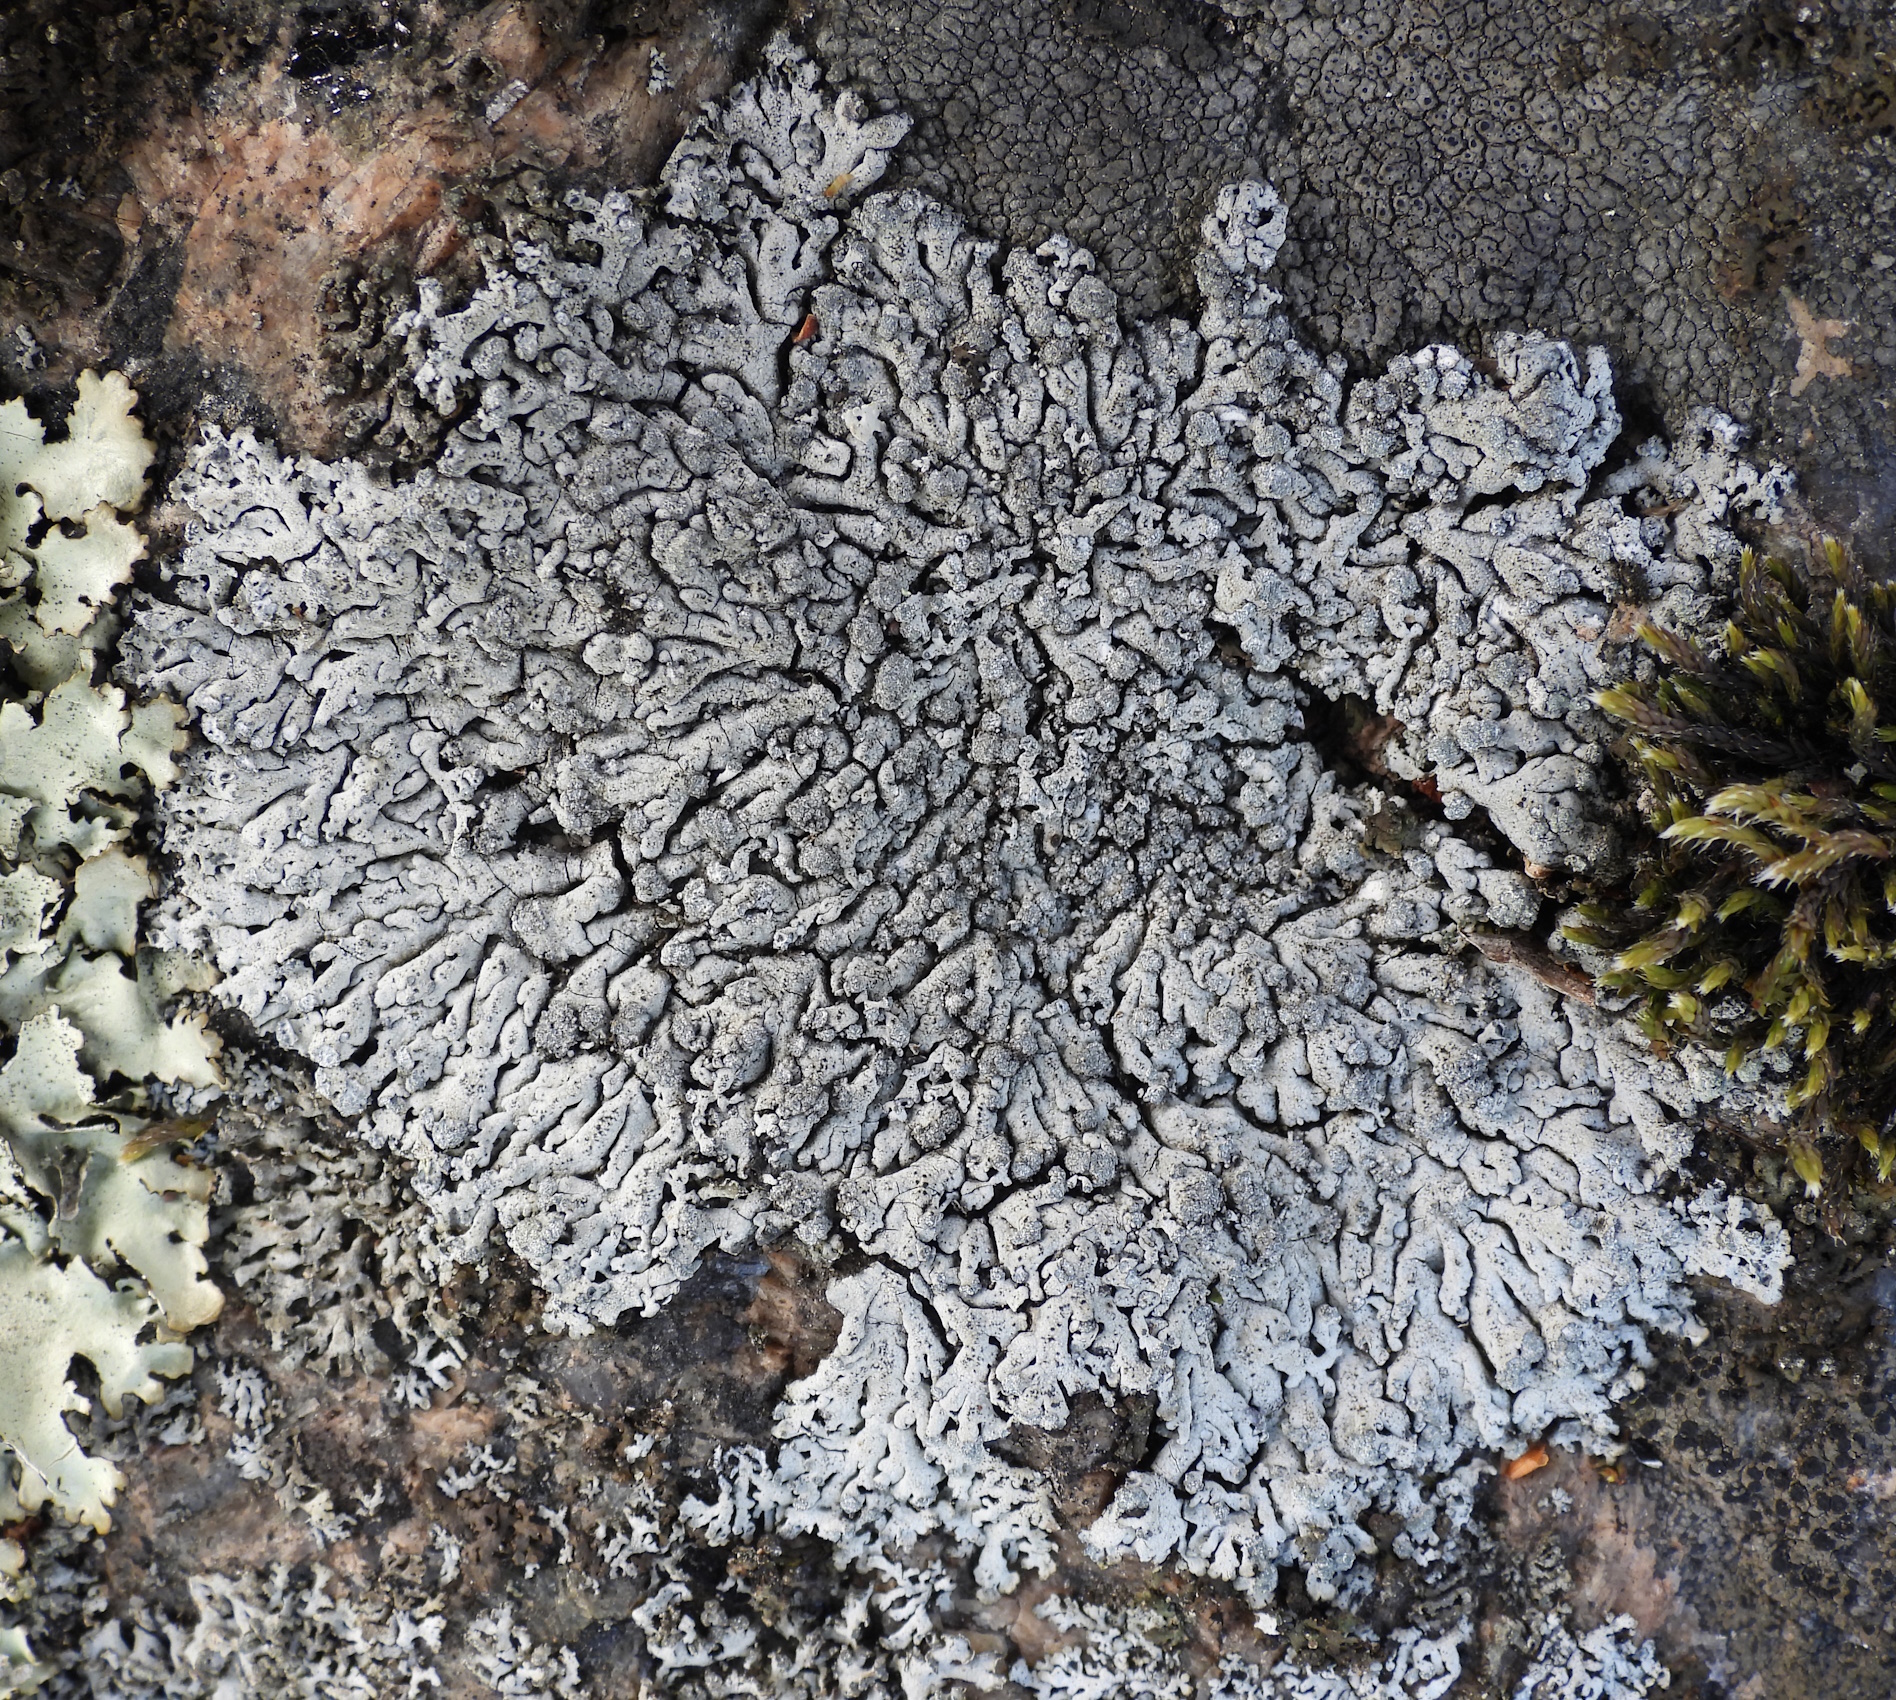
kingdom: Fungi
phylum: Ascomycota
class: Lecanoromycetes
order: Caliciales
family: Physciaceae
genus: Physcia
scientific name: Physcia caesia
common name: Blue-gray rosette lichen
